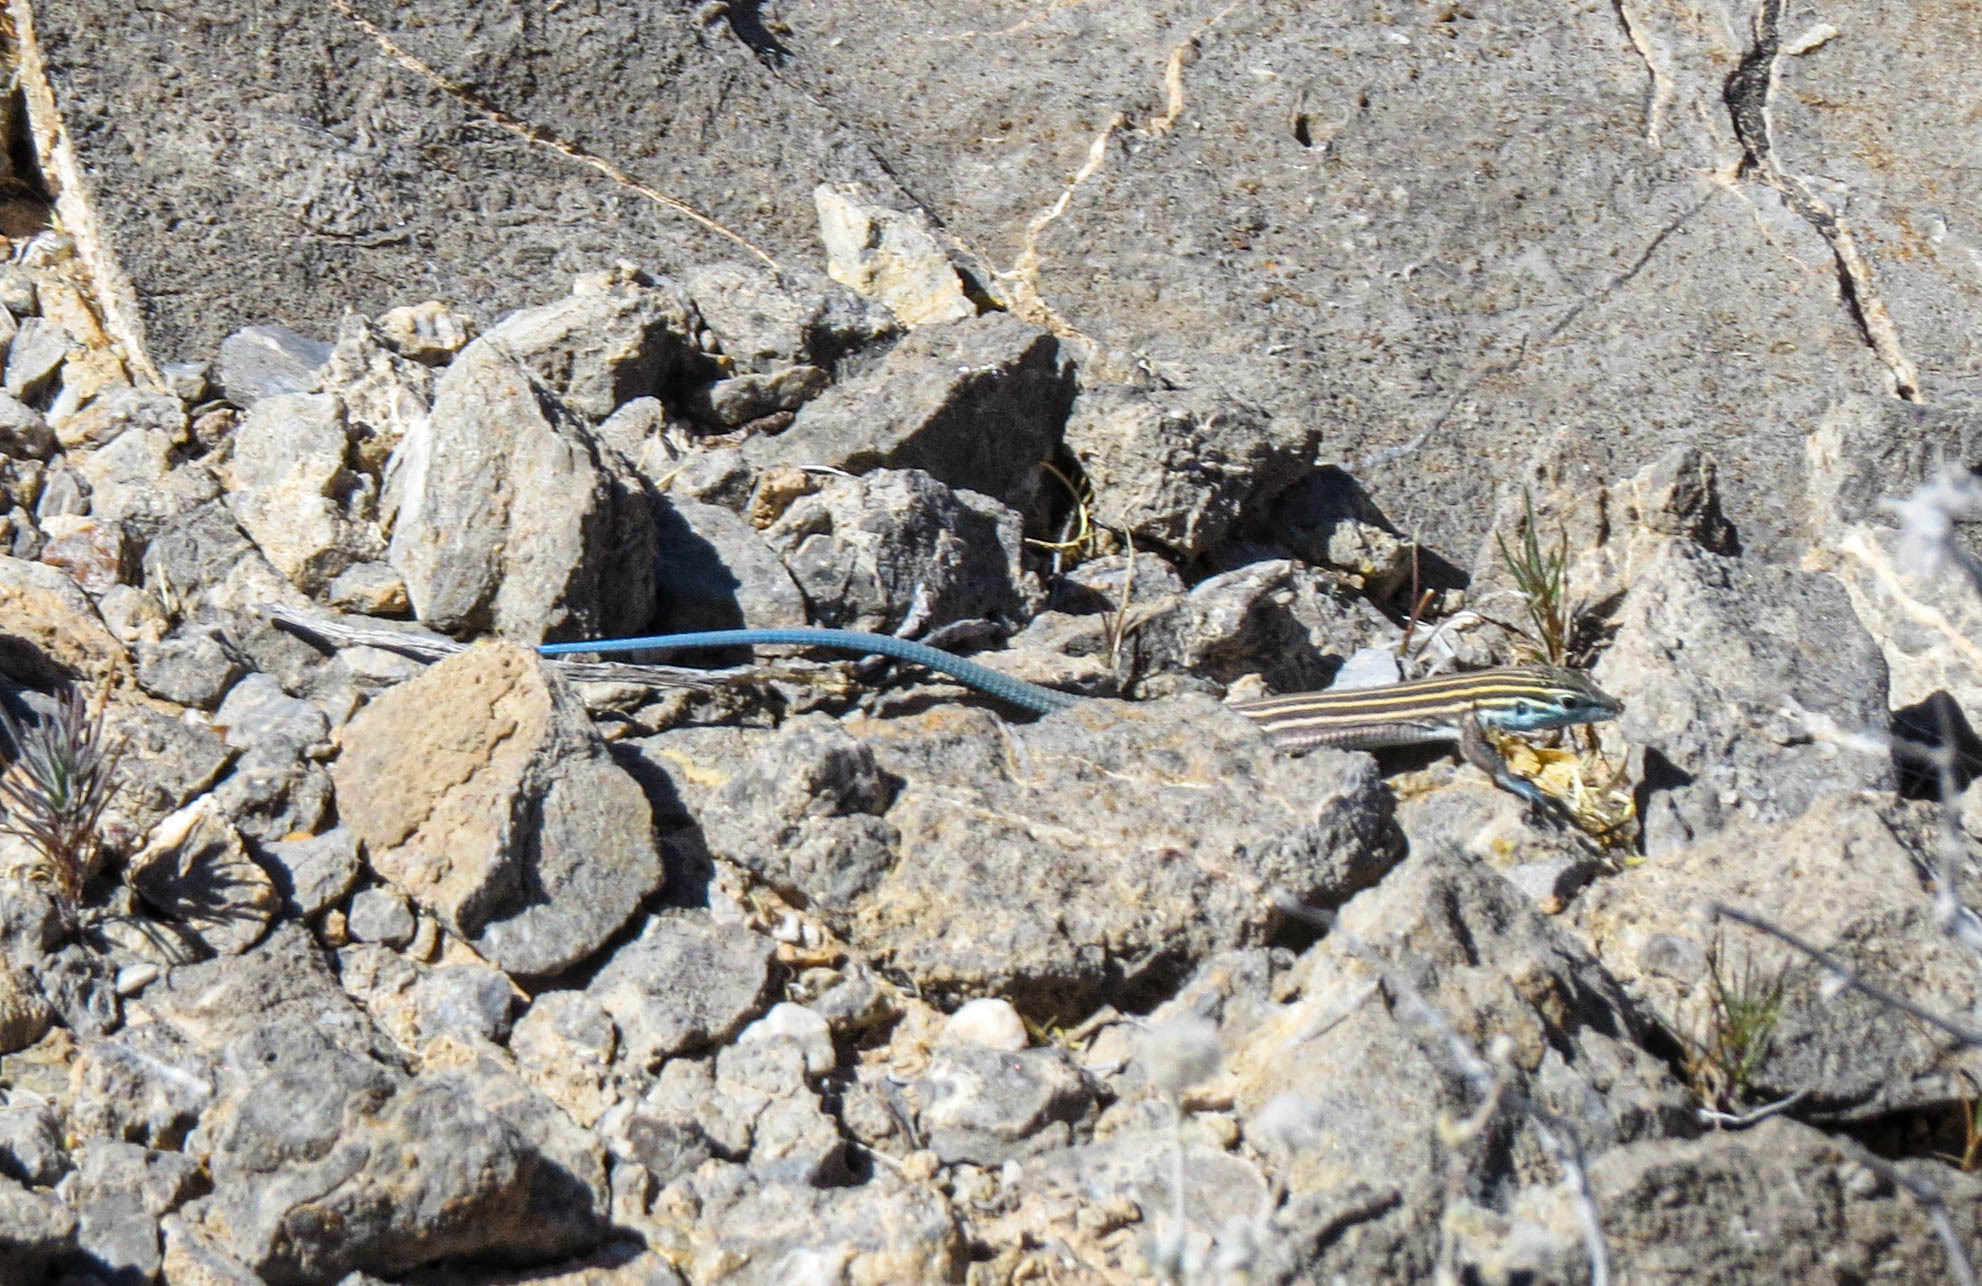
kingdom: Animalia
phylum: Chordata
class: Squamata
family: Teiidae
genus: Aspidoscelis
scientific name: Aspidoscelis inornatus
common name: Little striped whiptail
